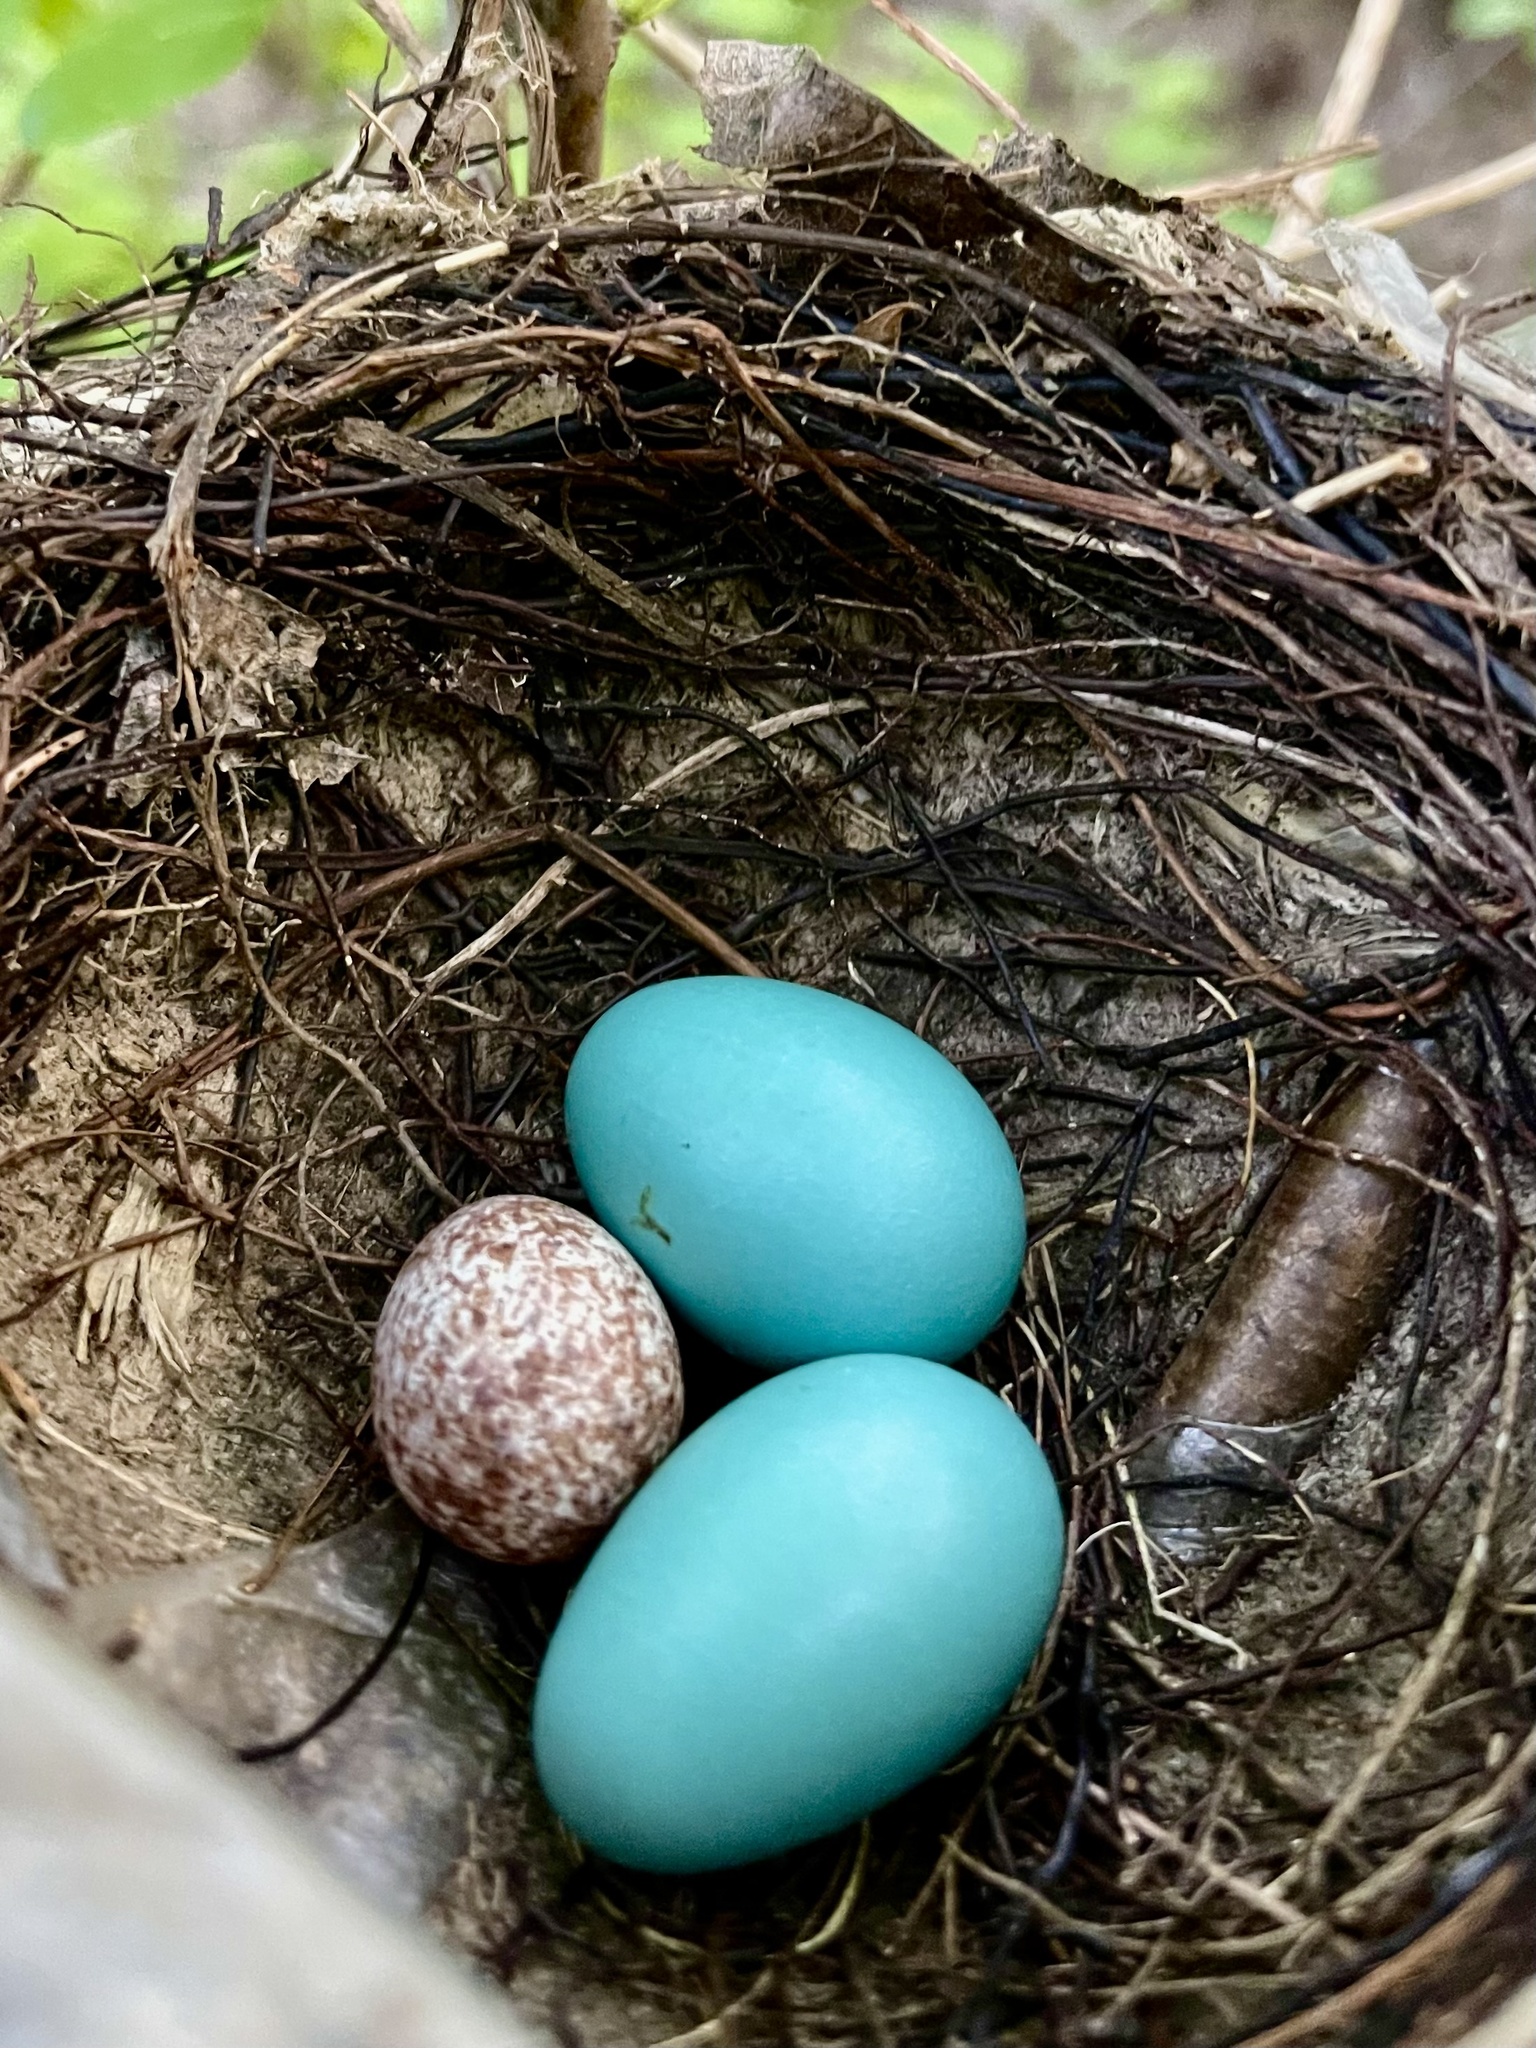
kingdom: Animalia
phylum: Chordata
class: Aves
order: Passeriformes
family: Turdidae
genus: Turdus
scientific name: Turdus migratorius
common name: American robin
